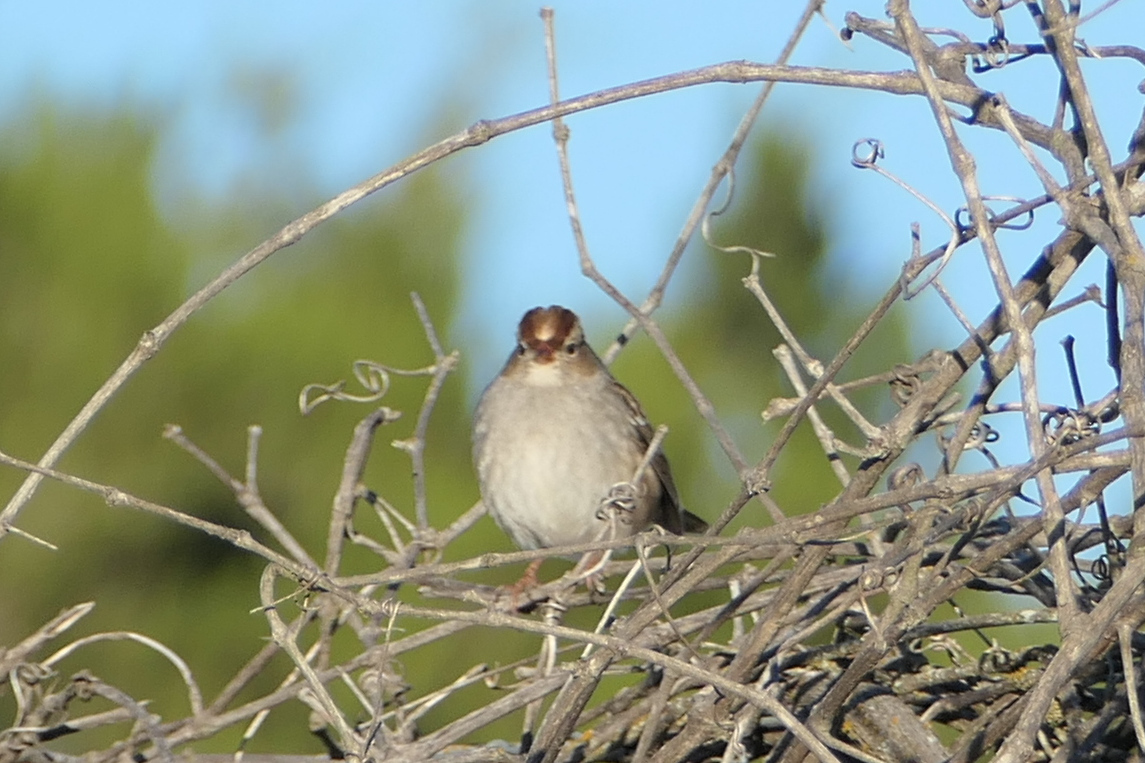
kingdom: Animalia
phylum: Chordata
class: Aves
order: Passeriformes
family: Passerellidae
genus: Zonotrichia
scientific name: Zonotrichia leucophrys
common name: White-crowned sparrow
